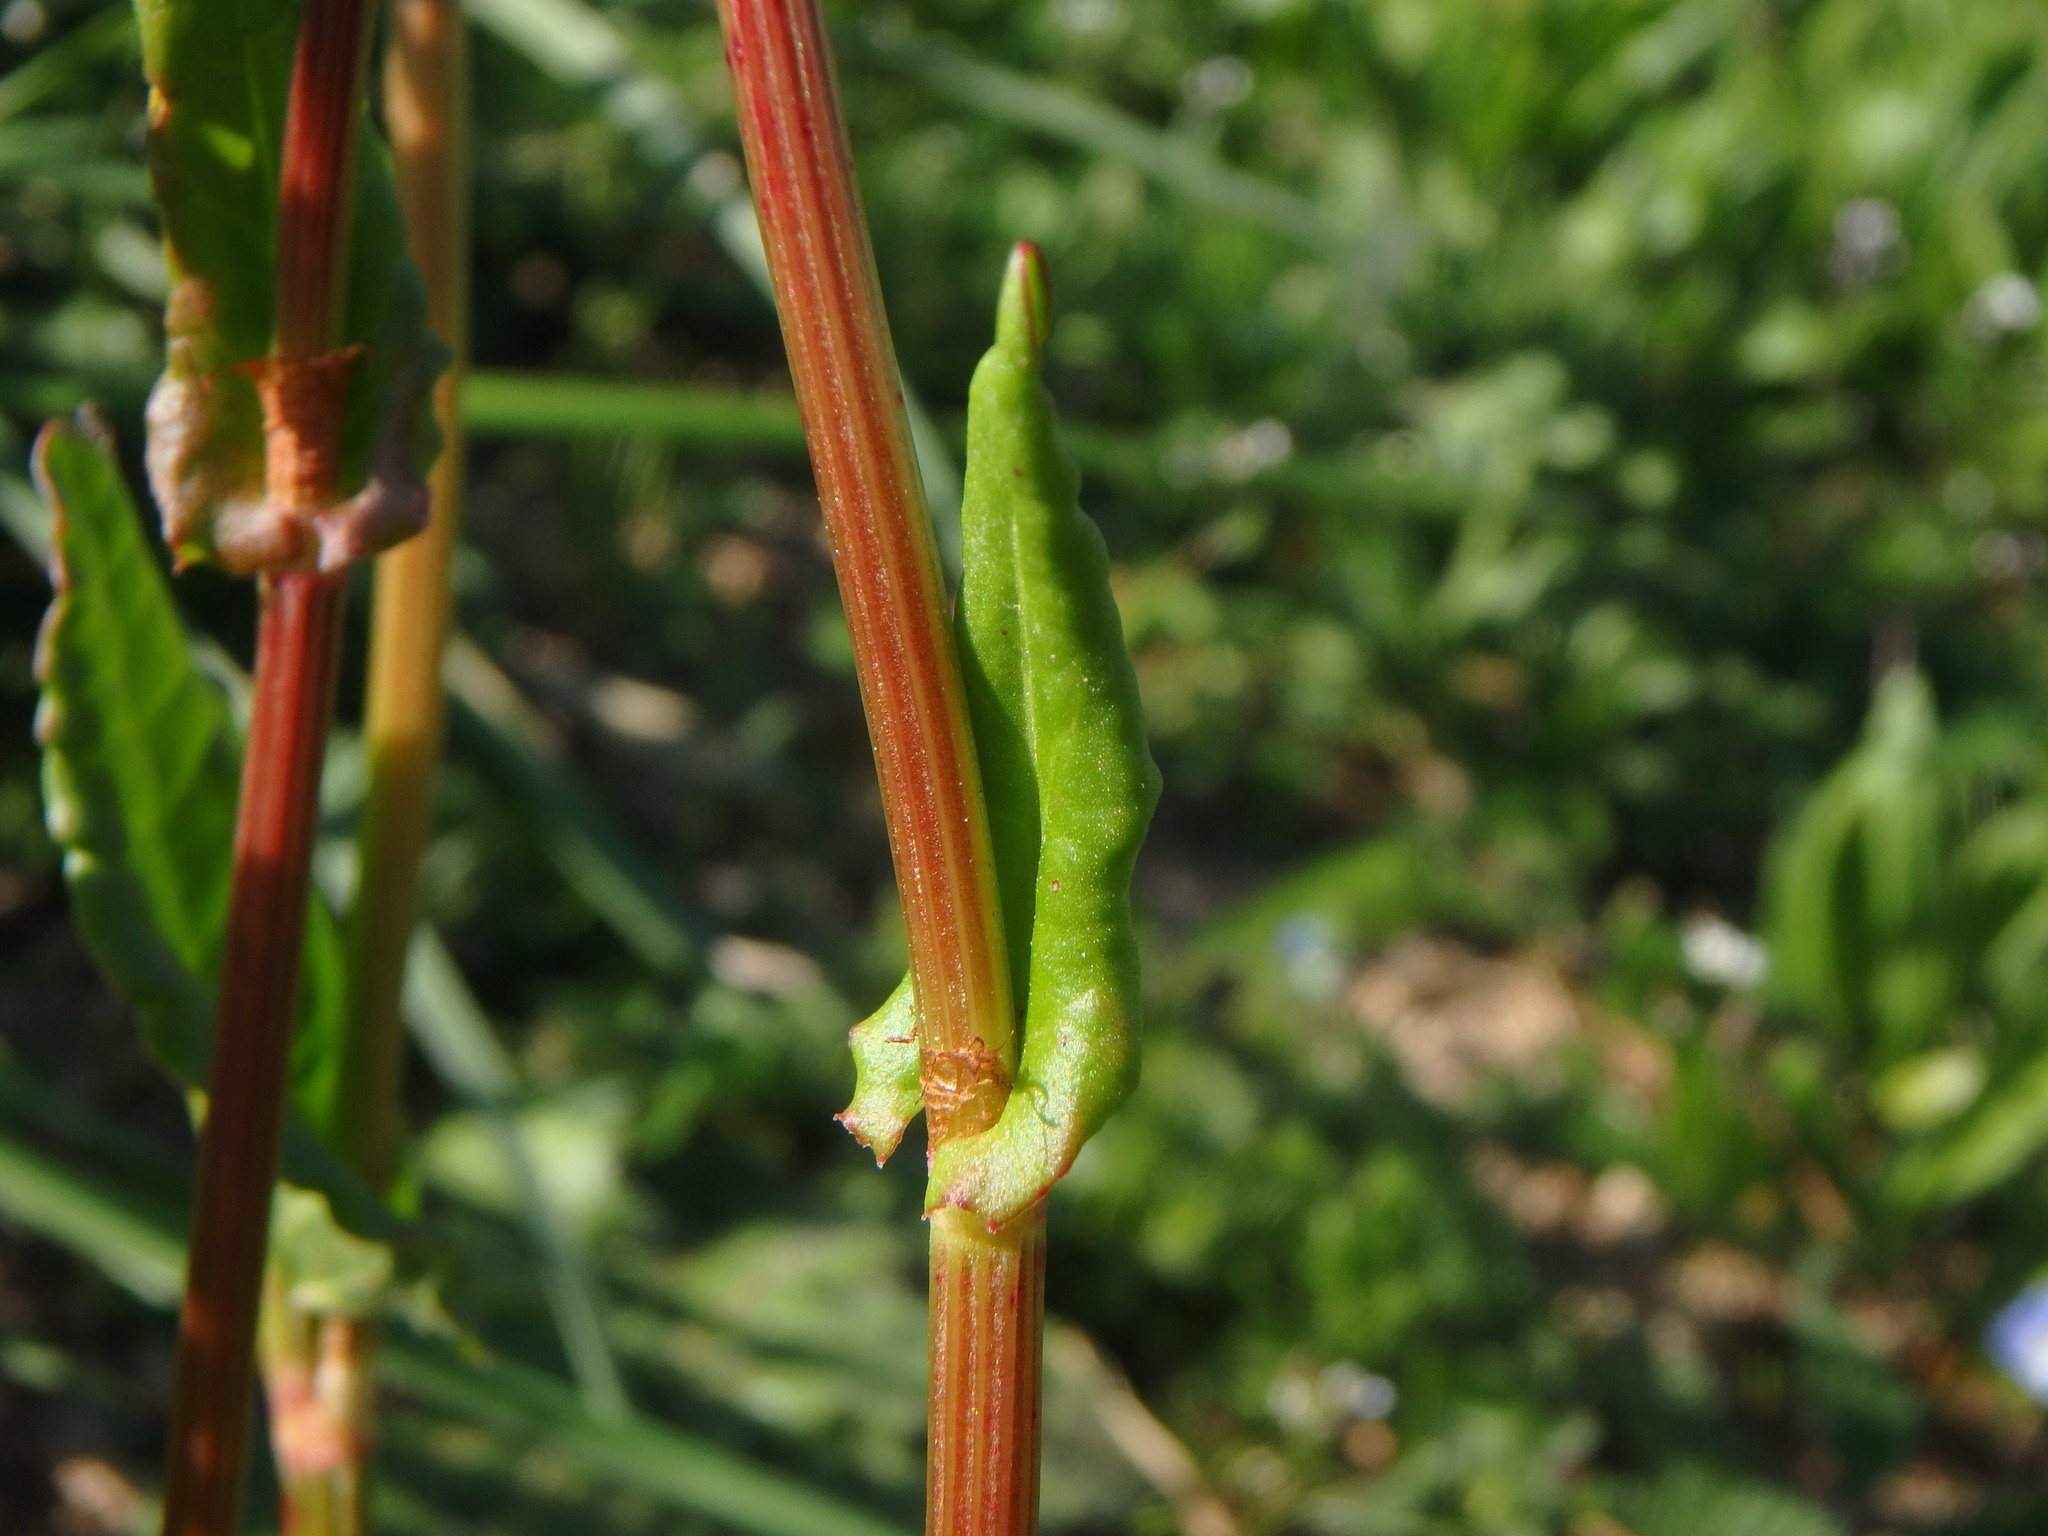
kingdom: Plantae
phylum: Tracheophyta
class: Magnoliopsida
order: Caryophyllales
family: Polygonaceae
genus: Rumex
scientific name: Rumex acetosa
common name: Garden sorrel
